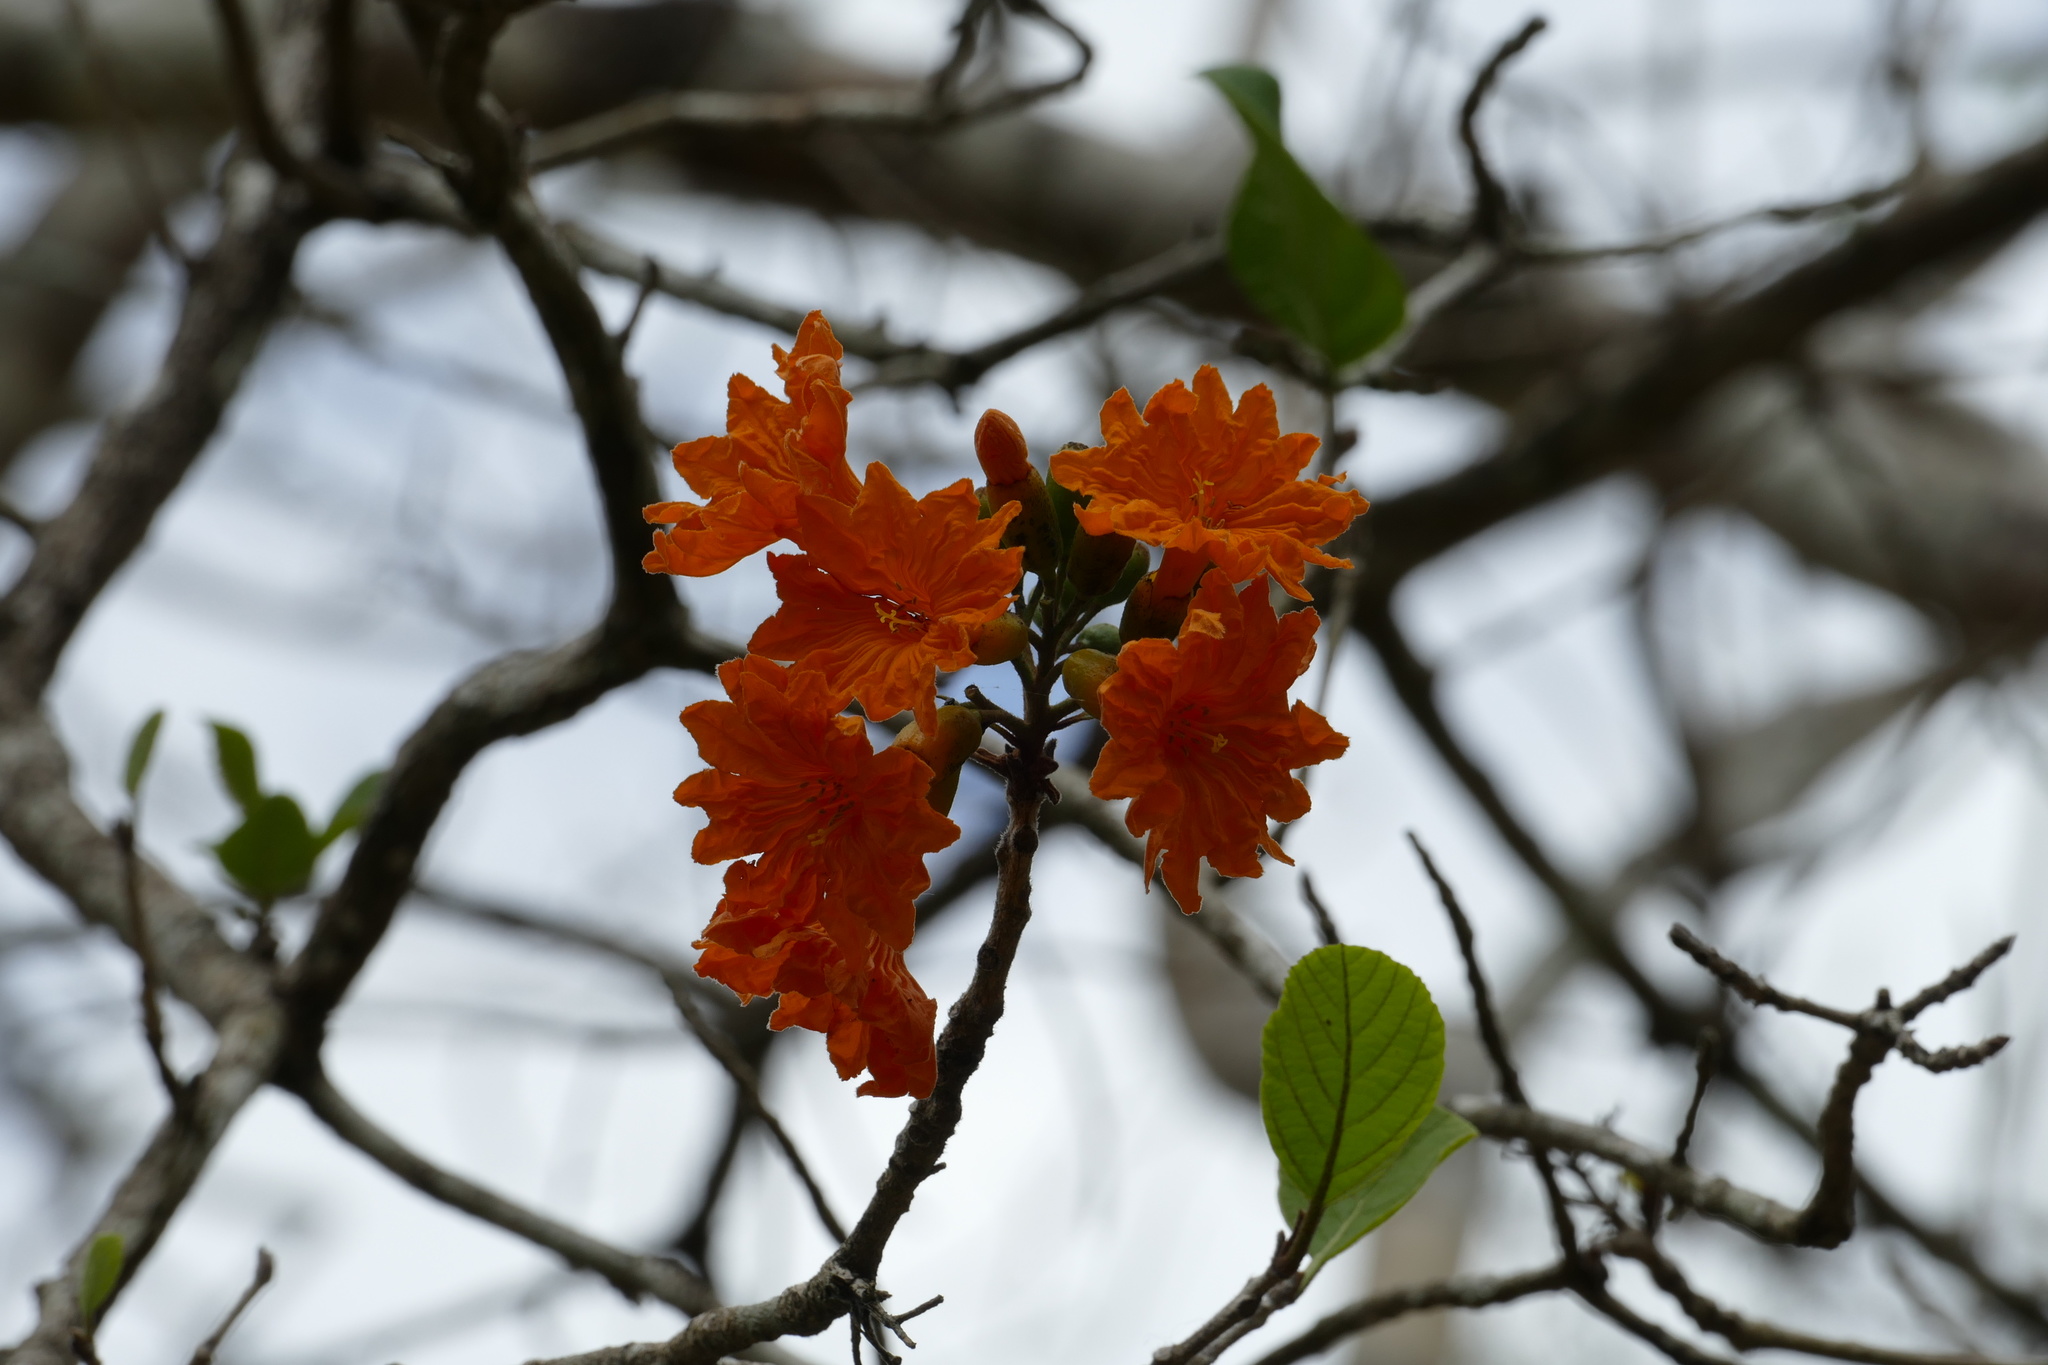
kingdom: Plantae
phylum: Tracheophyta
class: Magnoliopsida
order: Boraginales
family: Cordiaceae
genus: Cordia
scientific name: Cordia dodecandra
